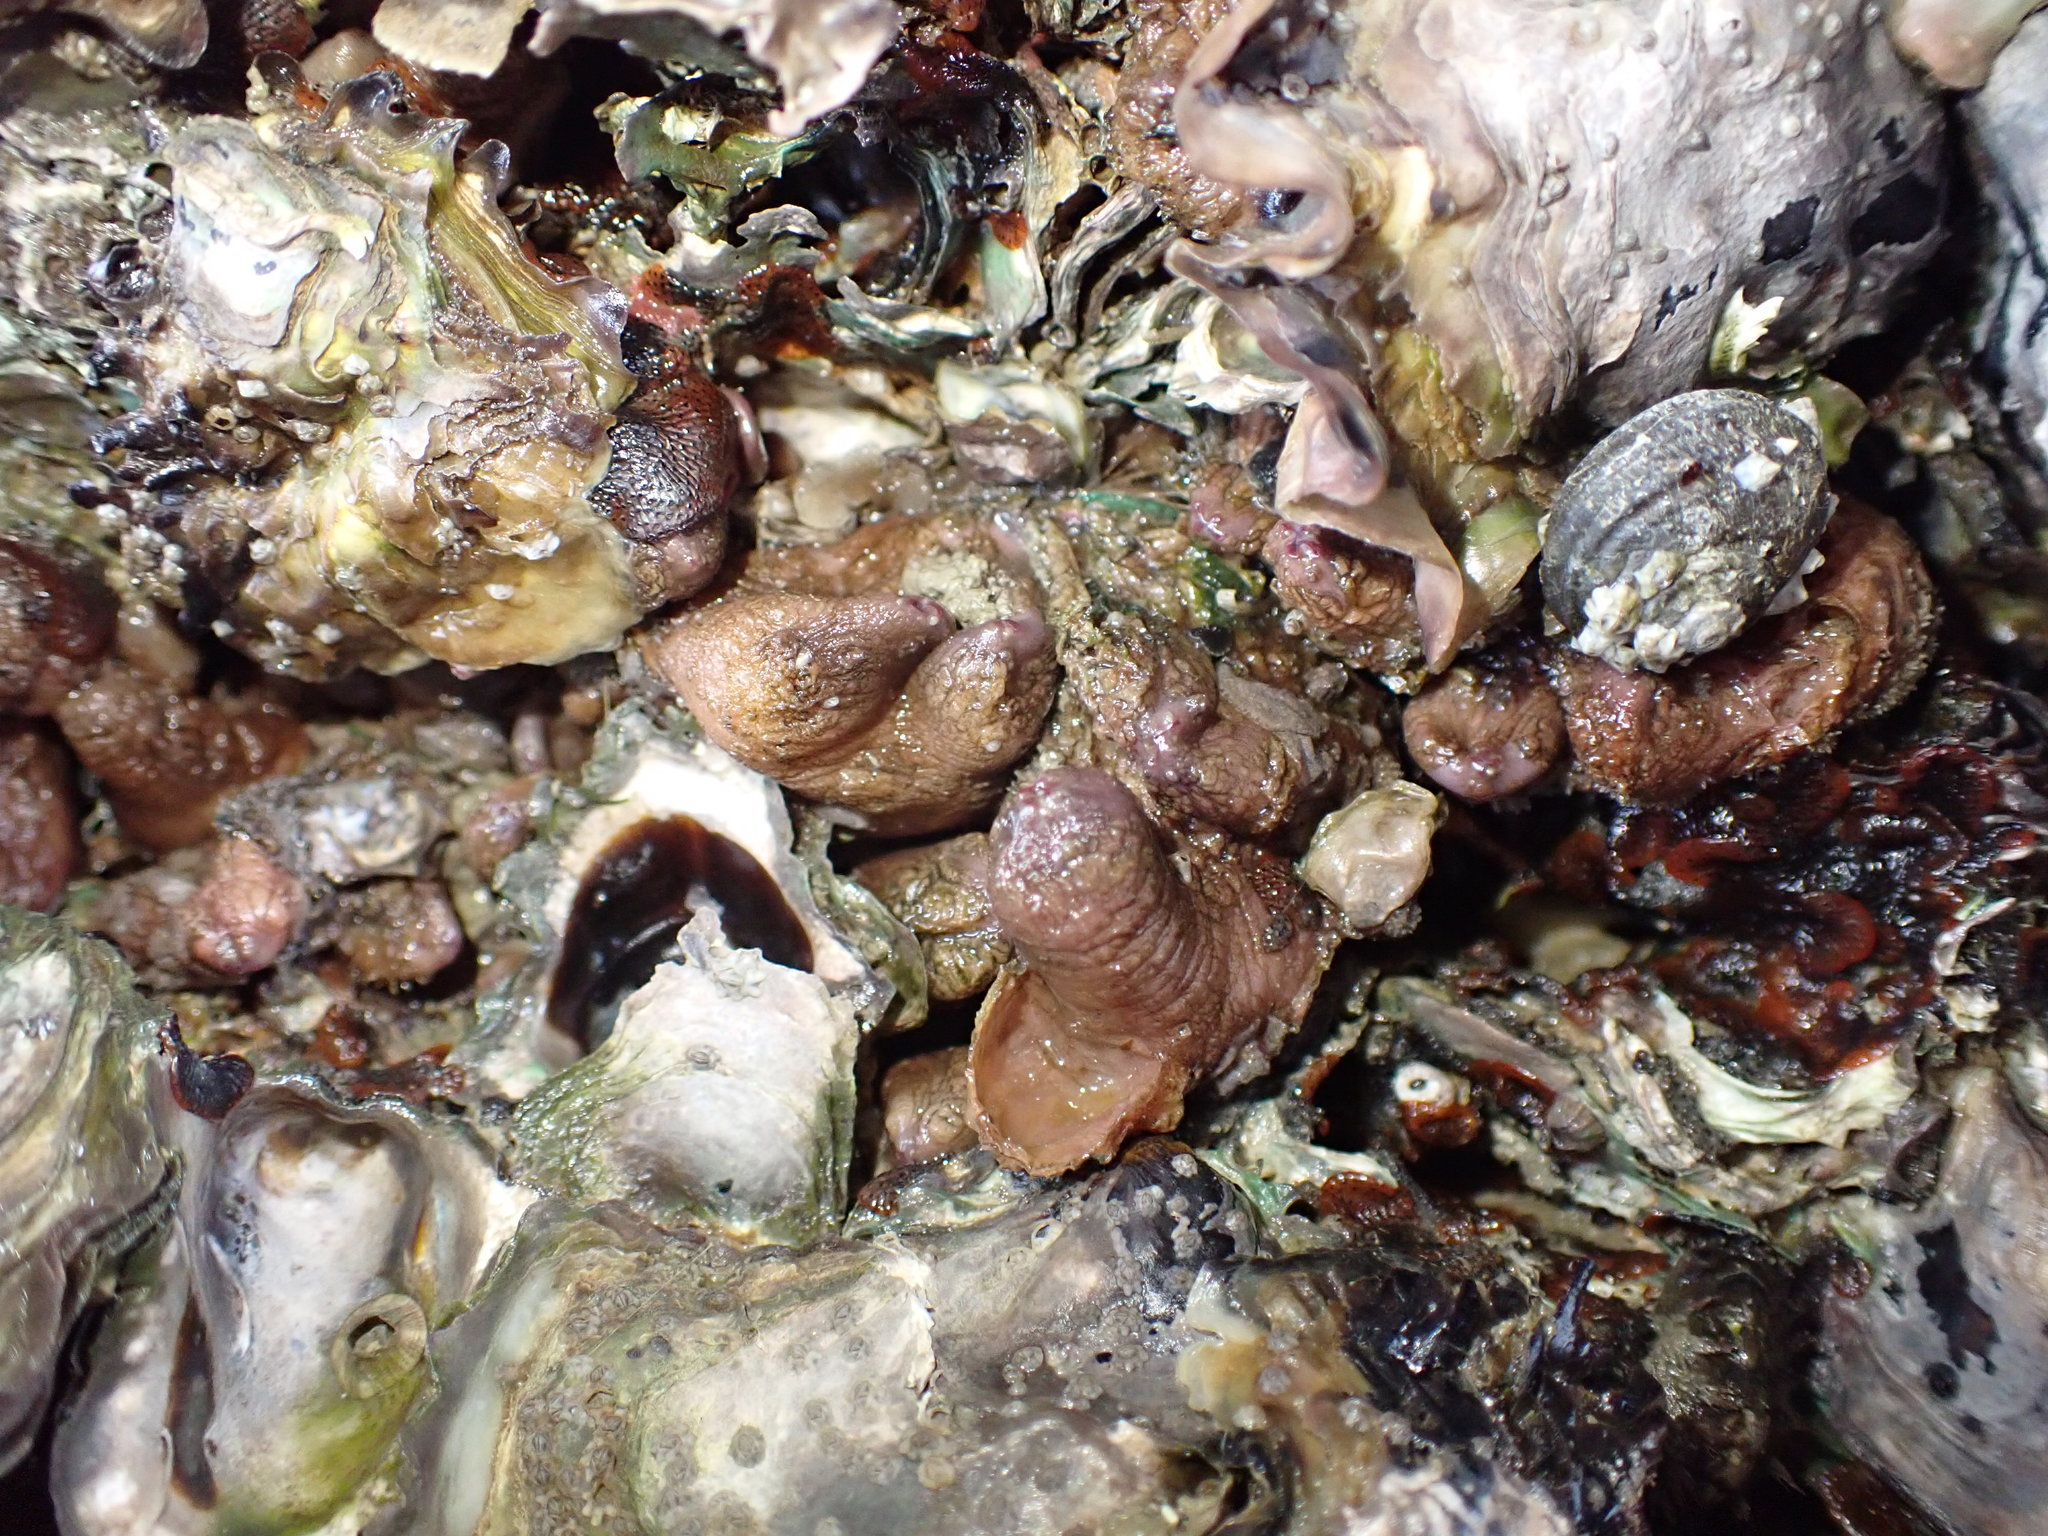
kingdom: Animalia
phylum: Chordata
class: Ascidiacea
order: Stolidobranchia
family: Styelidae
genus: Cnemidocarpa
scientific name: Cnemidocarpa bicornuta
